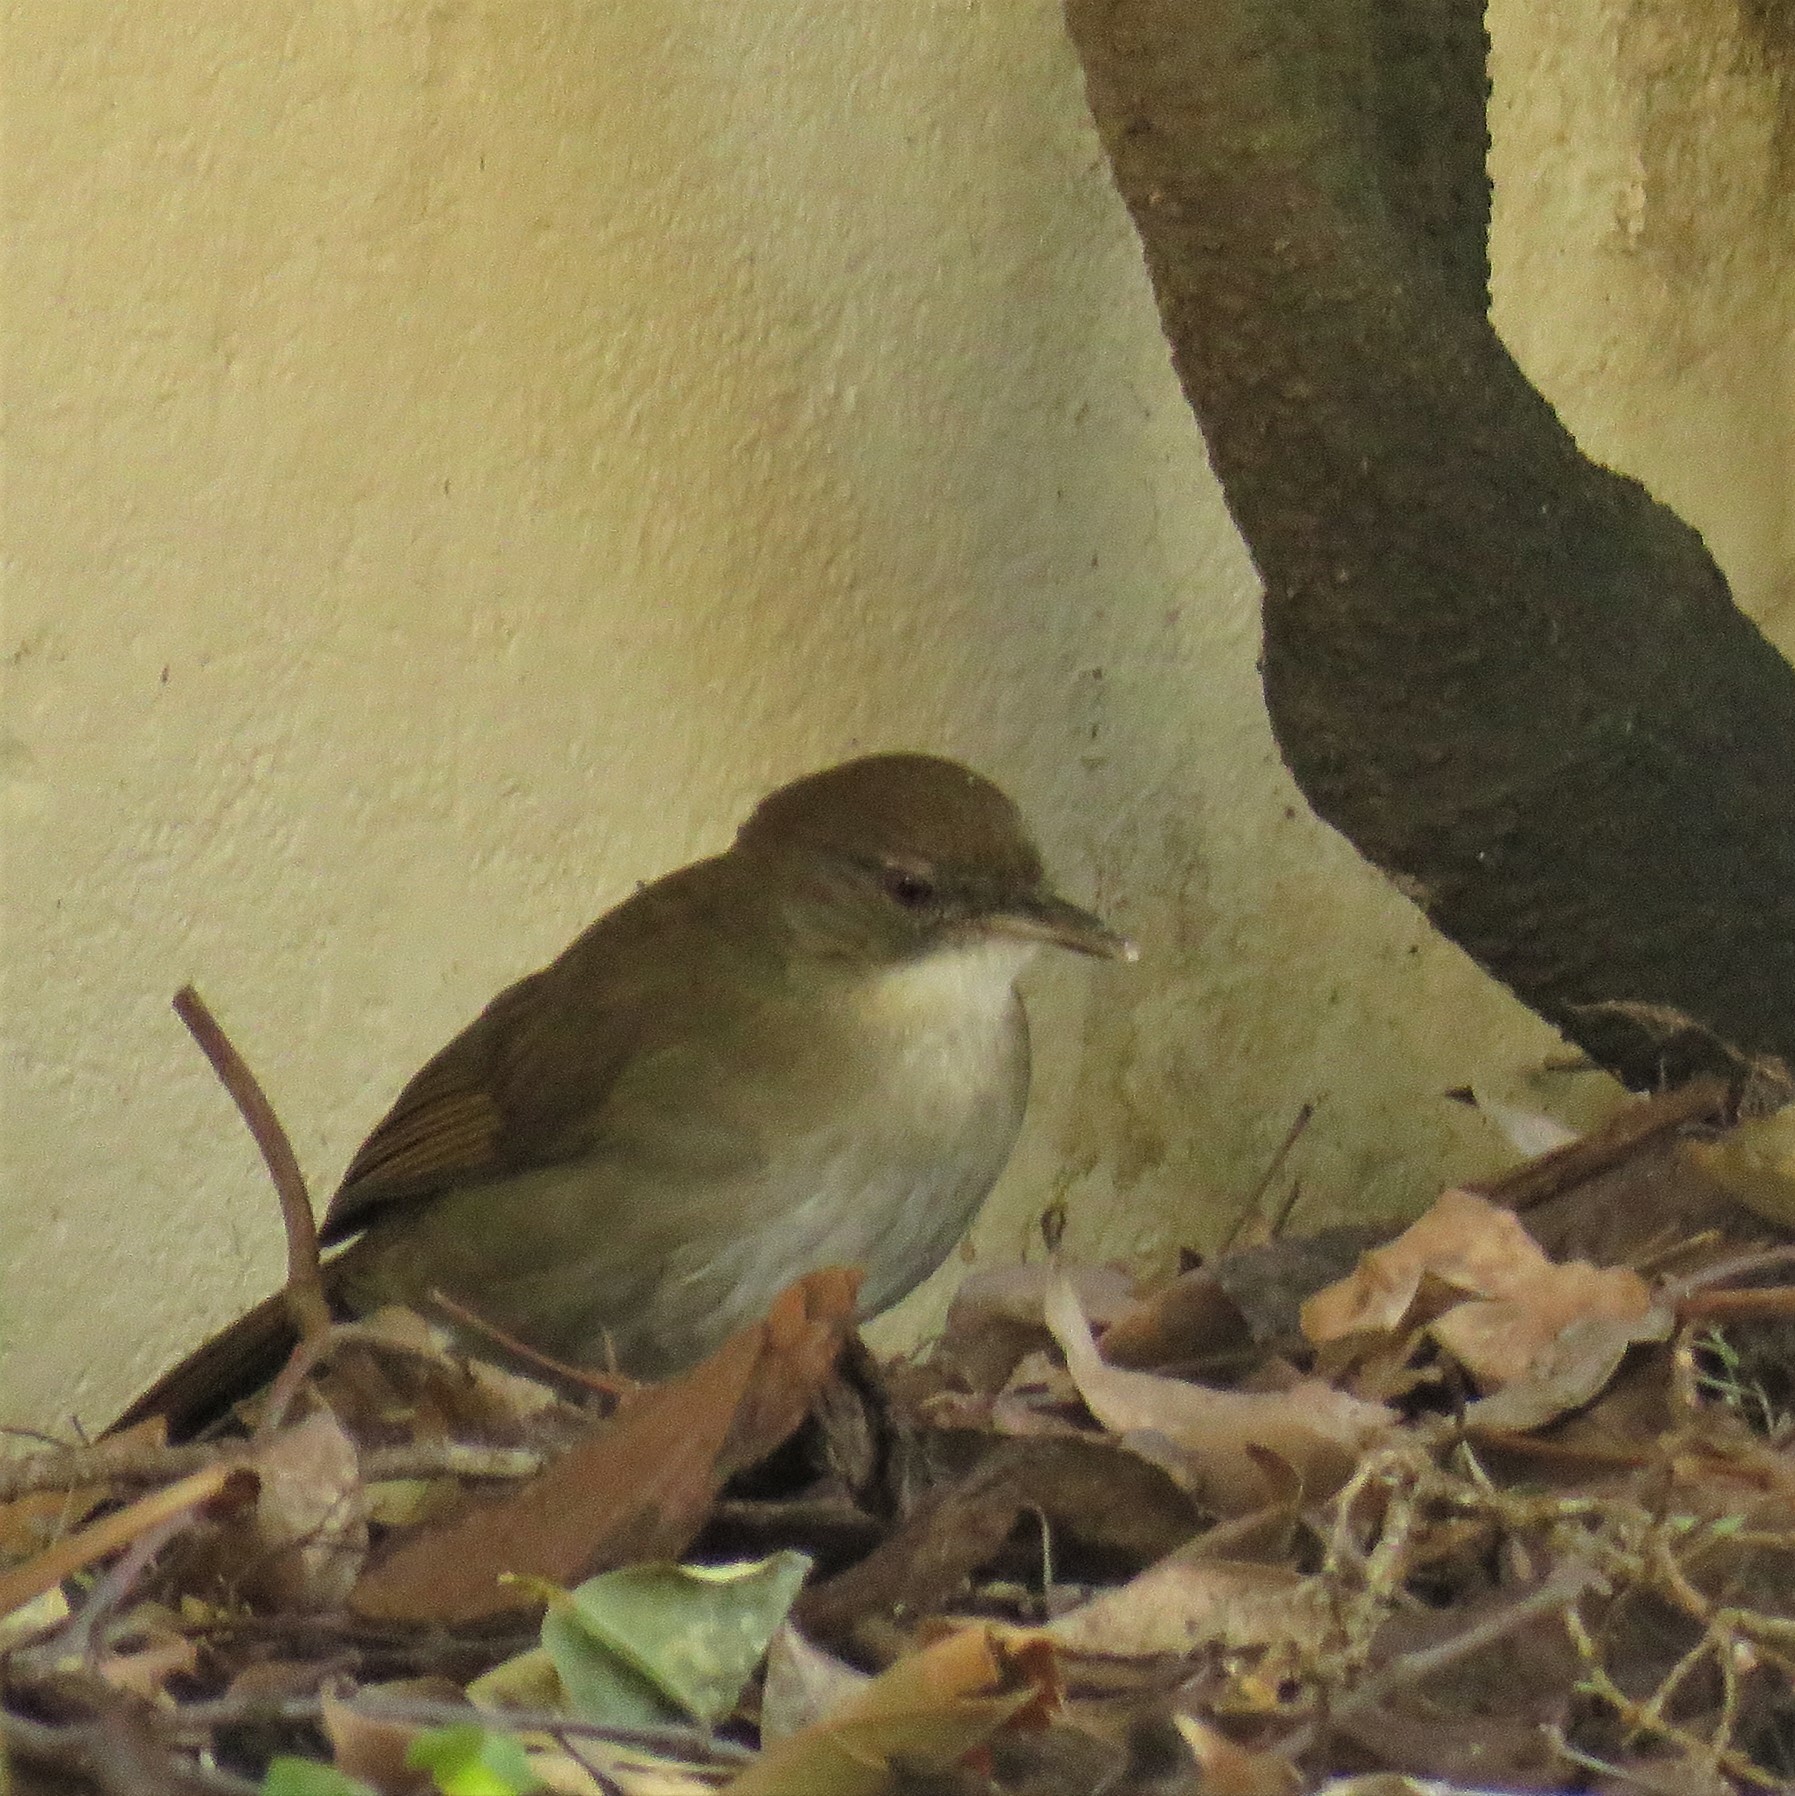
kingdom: Animalia
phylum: Chordata
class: Aves
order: Passeriformes
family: Pycnonotidae
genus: Phyllastrephus
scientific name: Phyllastrephus terrestris
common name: Terrestrial brownbul
